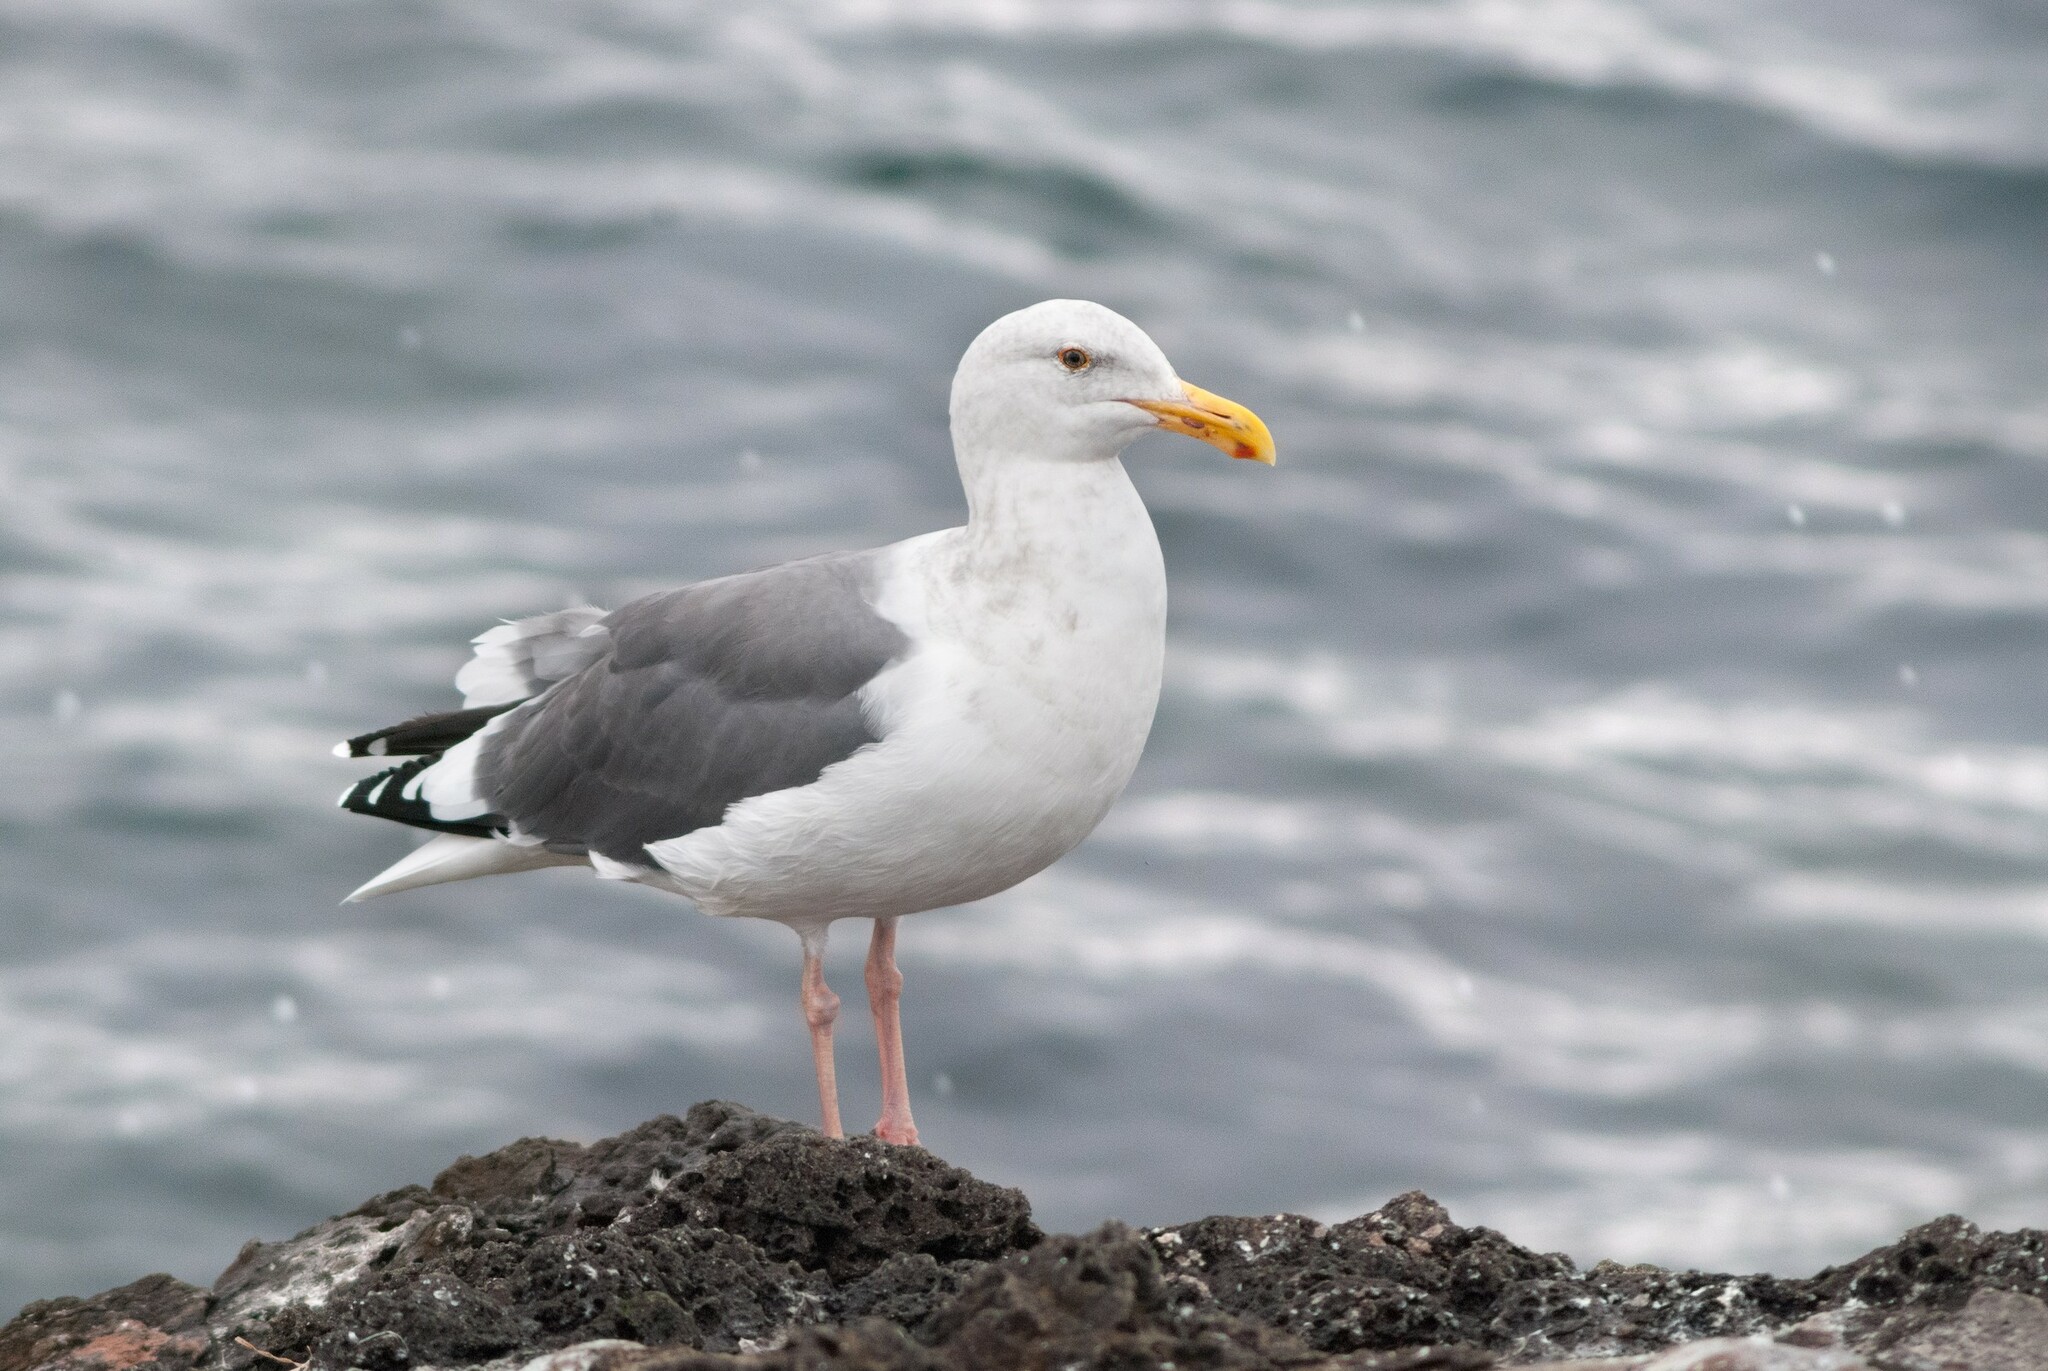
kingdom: Animalia
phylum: Chordata
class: Aves
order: Charadriiformes
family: Laridae
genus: Larus
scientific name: Larus occidentalis
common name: Western gull
